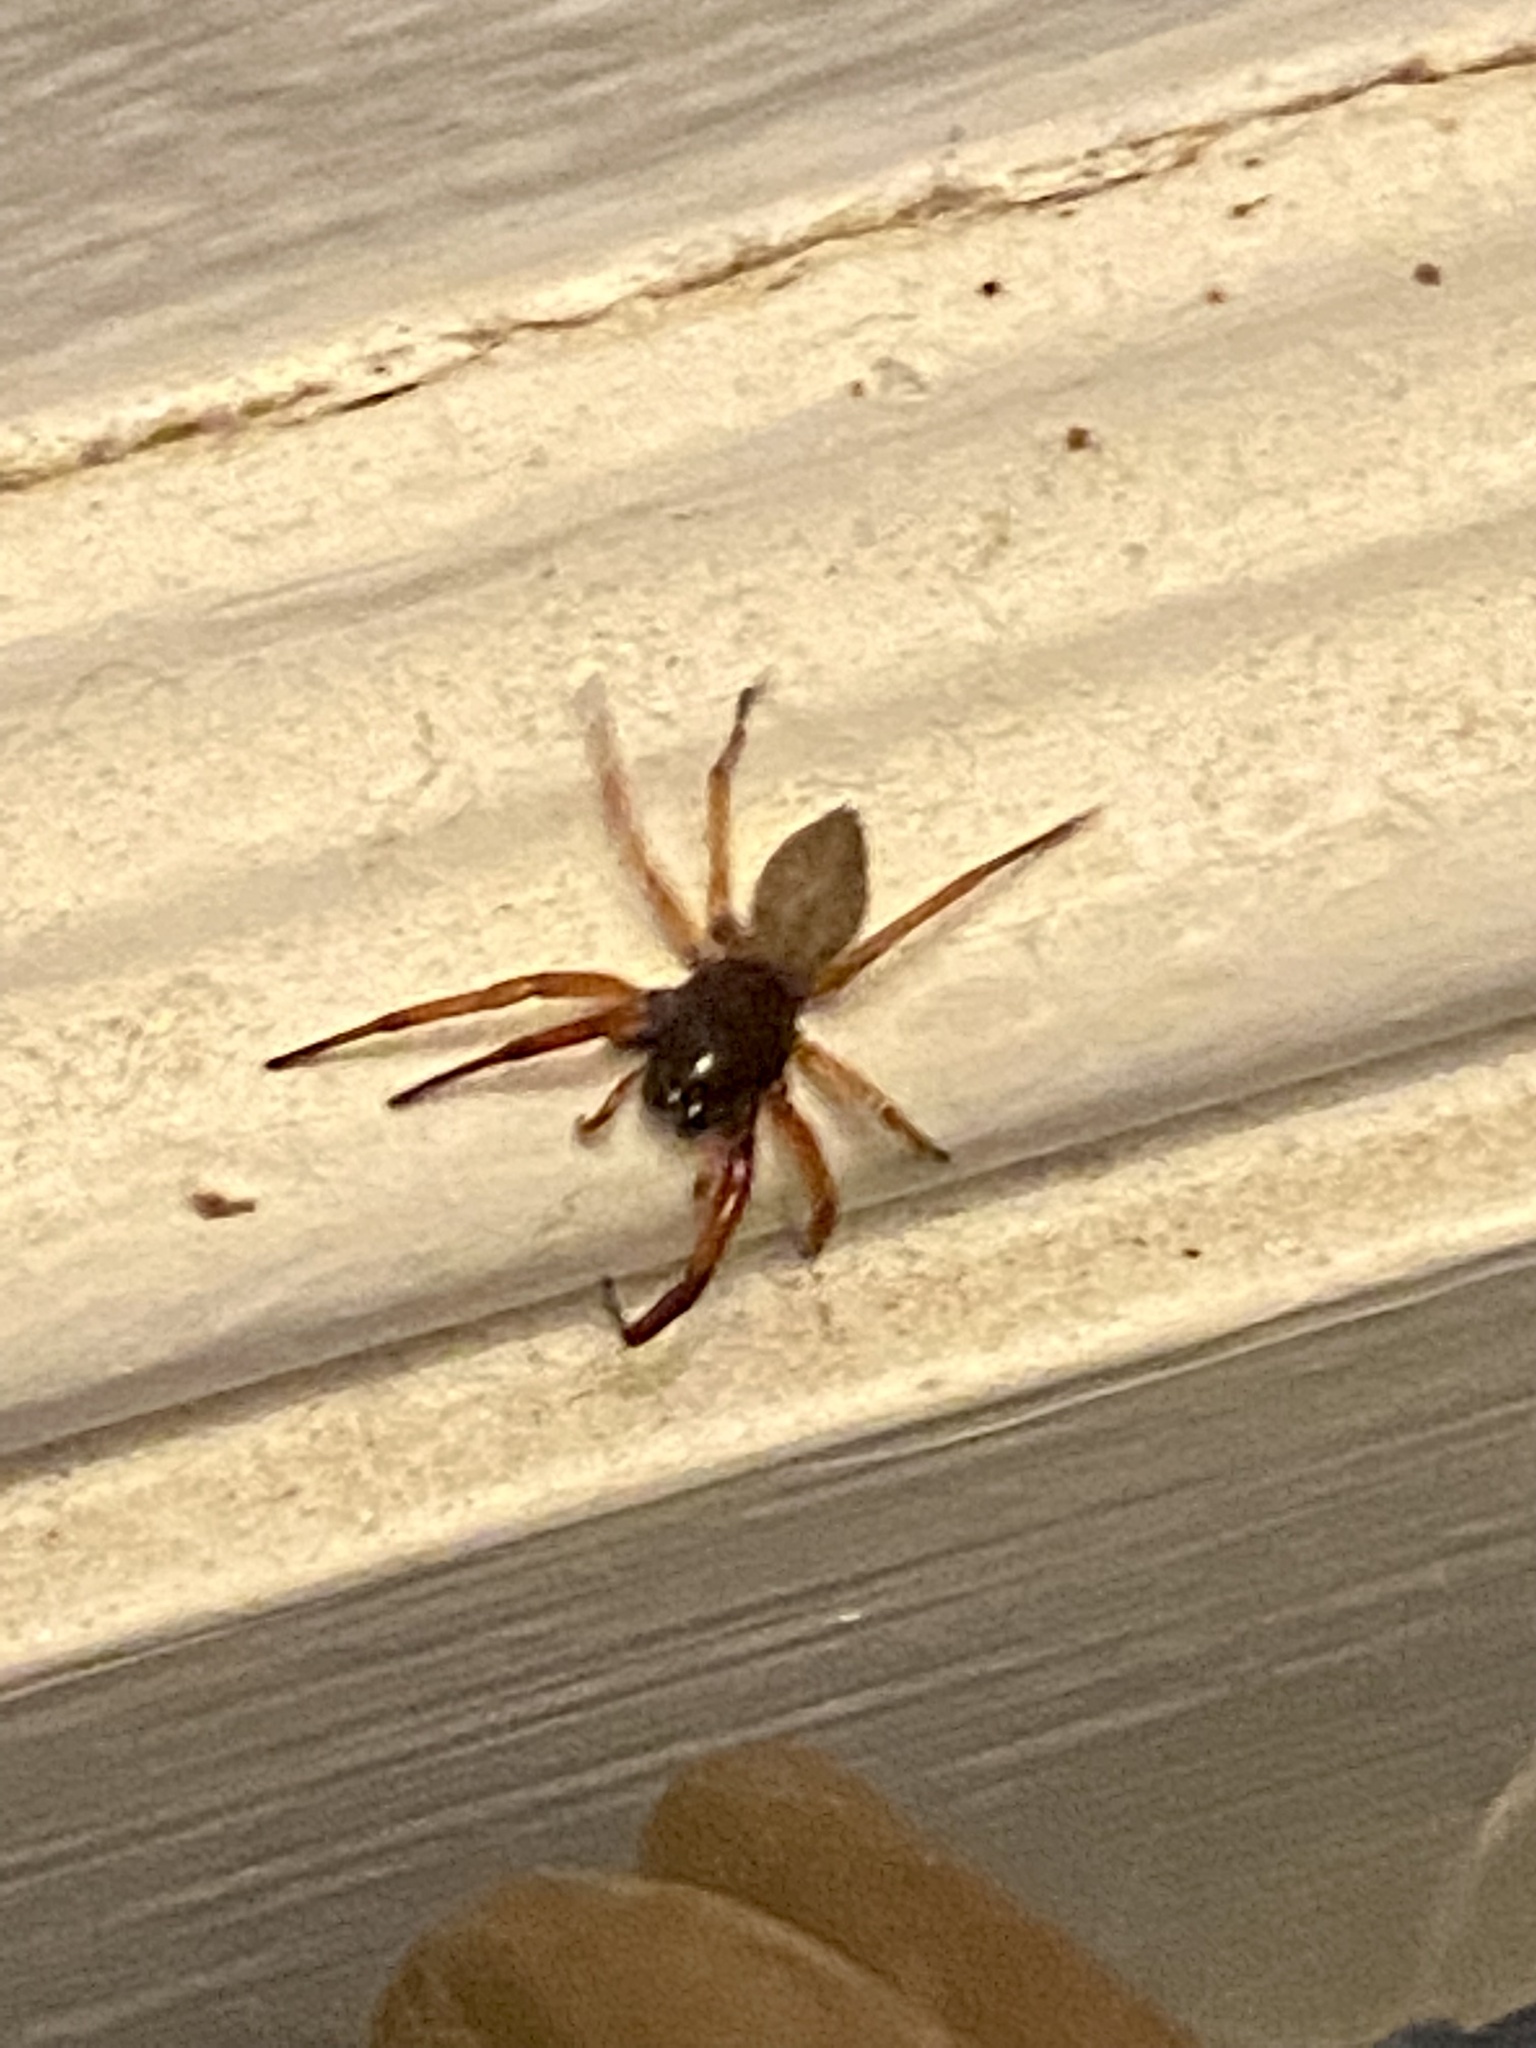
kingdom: Animalia
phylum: Arthropoda
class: Arachnida
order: Araneae
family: Trachelidae
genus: Trachelas
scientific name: Trachelas tranquillus
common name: Broad-faced sac spider
